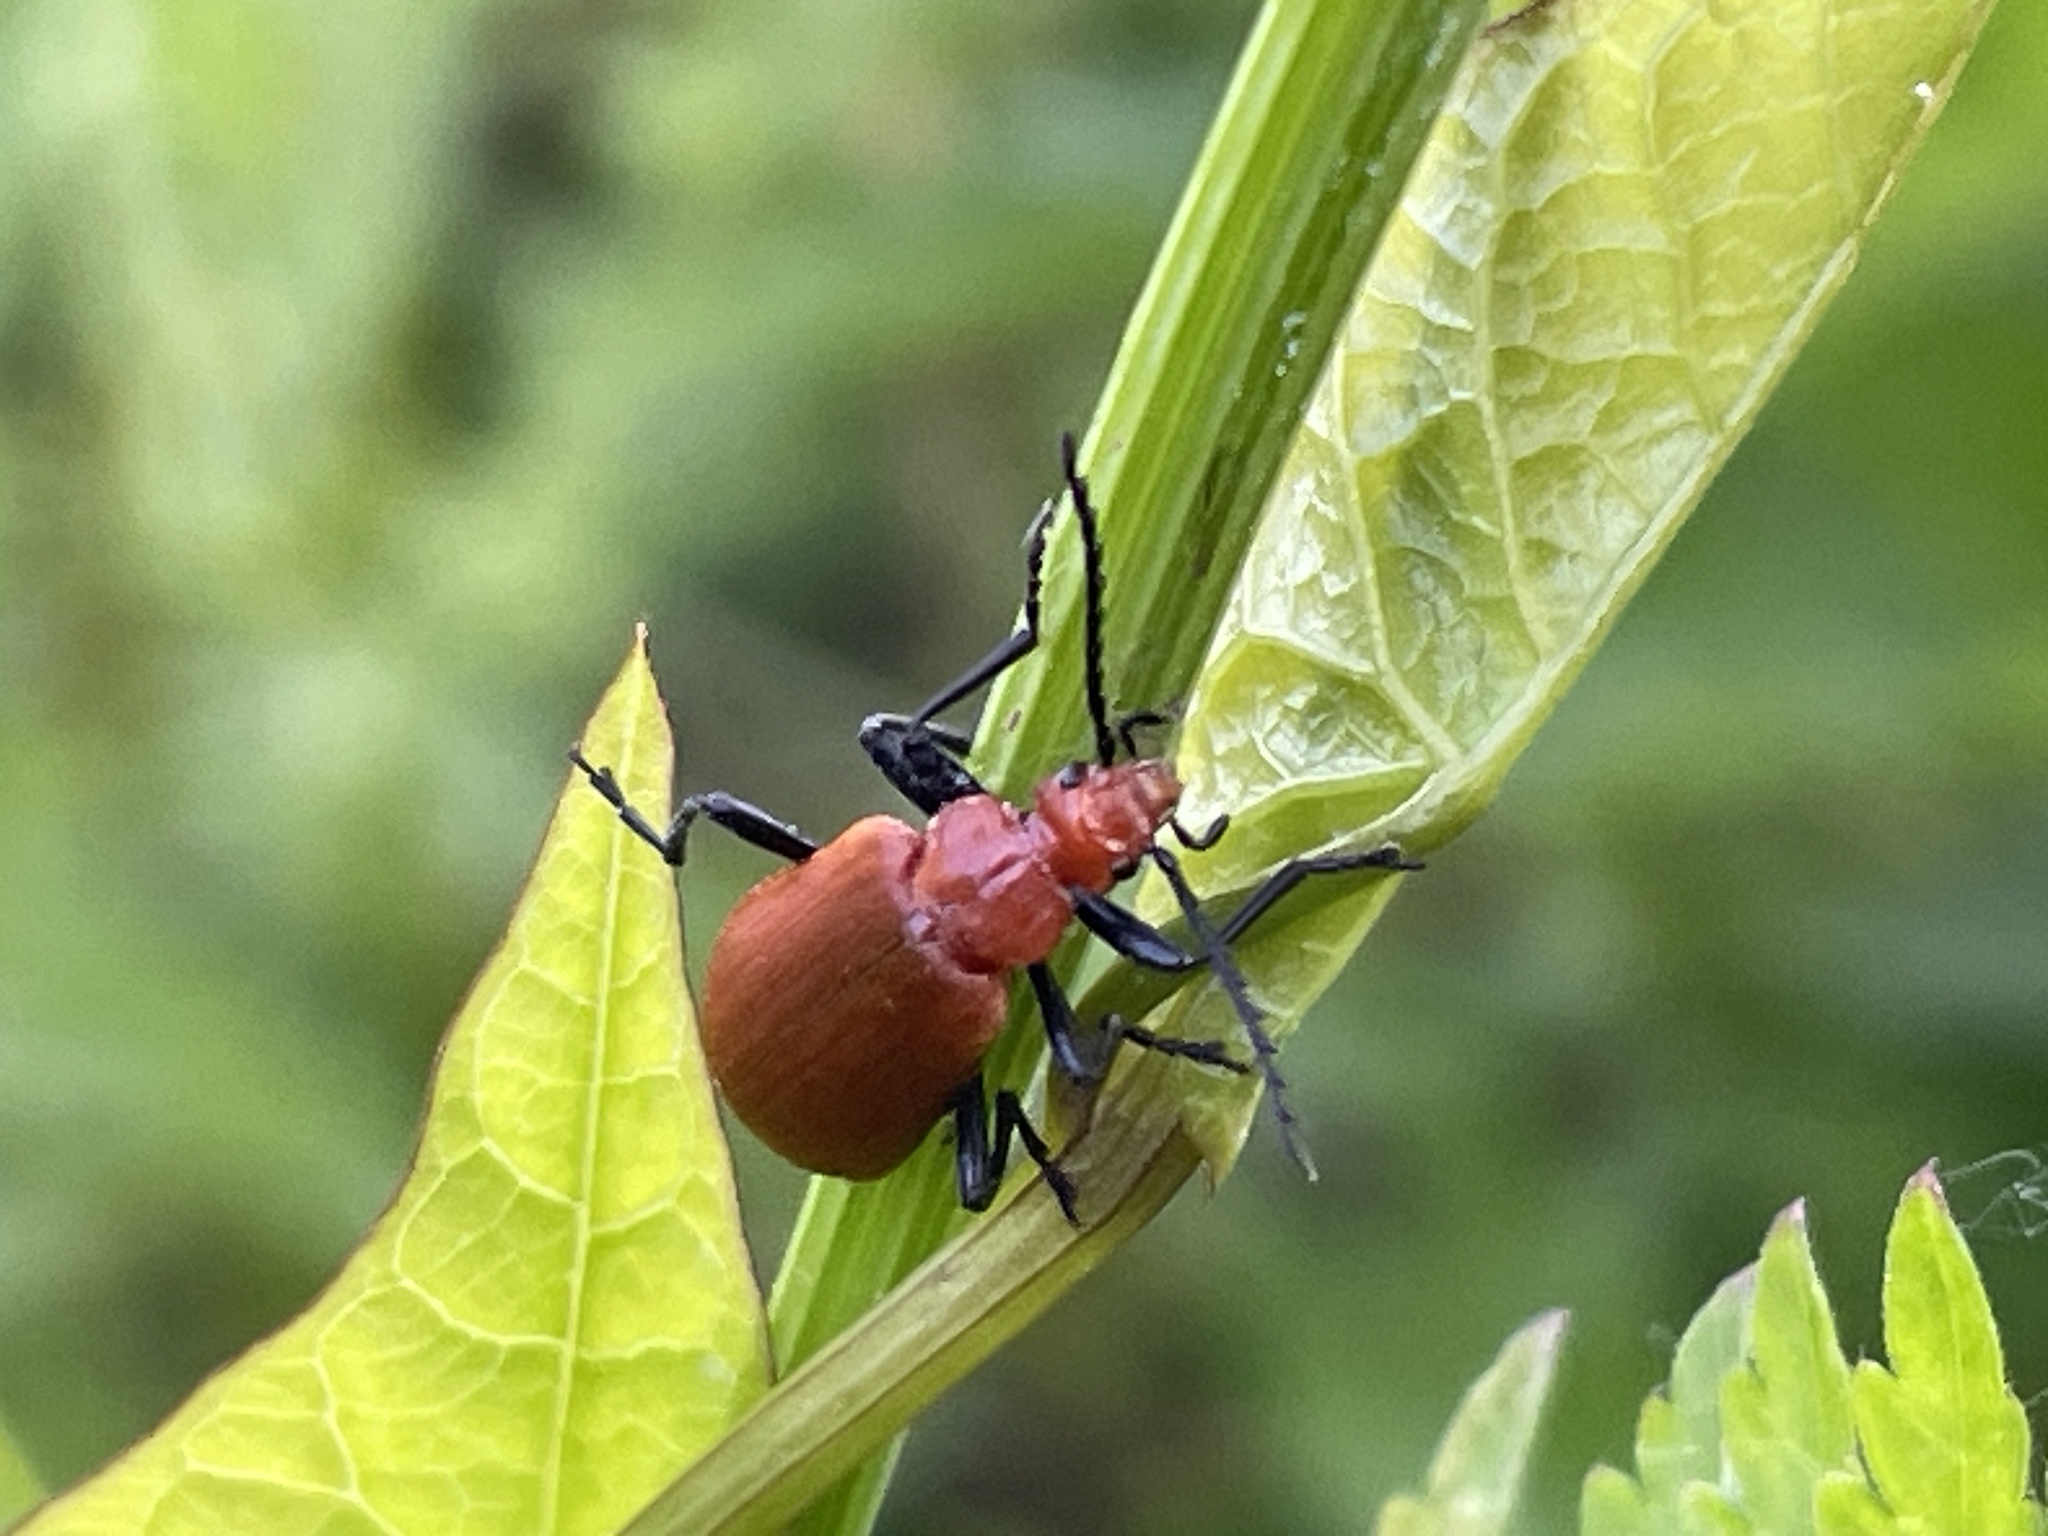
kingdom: Animalia
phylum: Arthropoda
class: Insecta
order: Coleoptera
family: Pyrochroidae
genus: Pyrochroa
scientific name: Pyrochroa serraticornis
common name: Red-headed cardinal beetle
